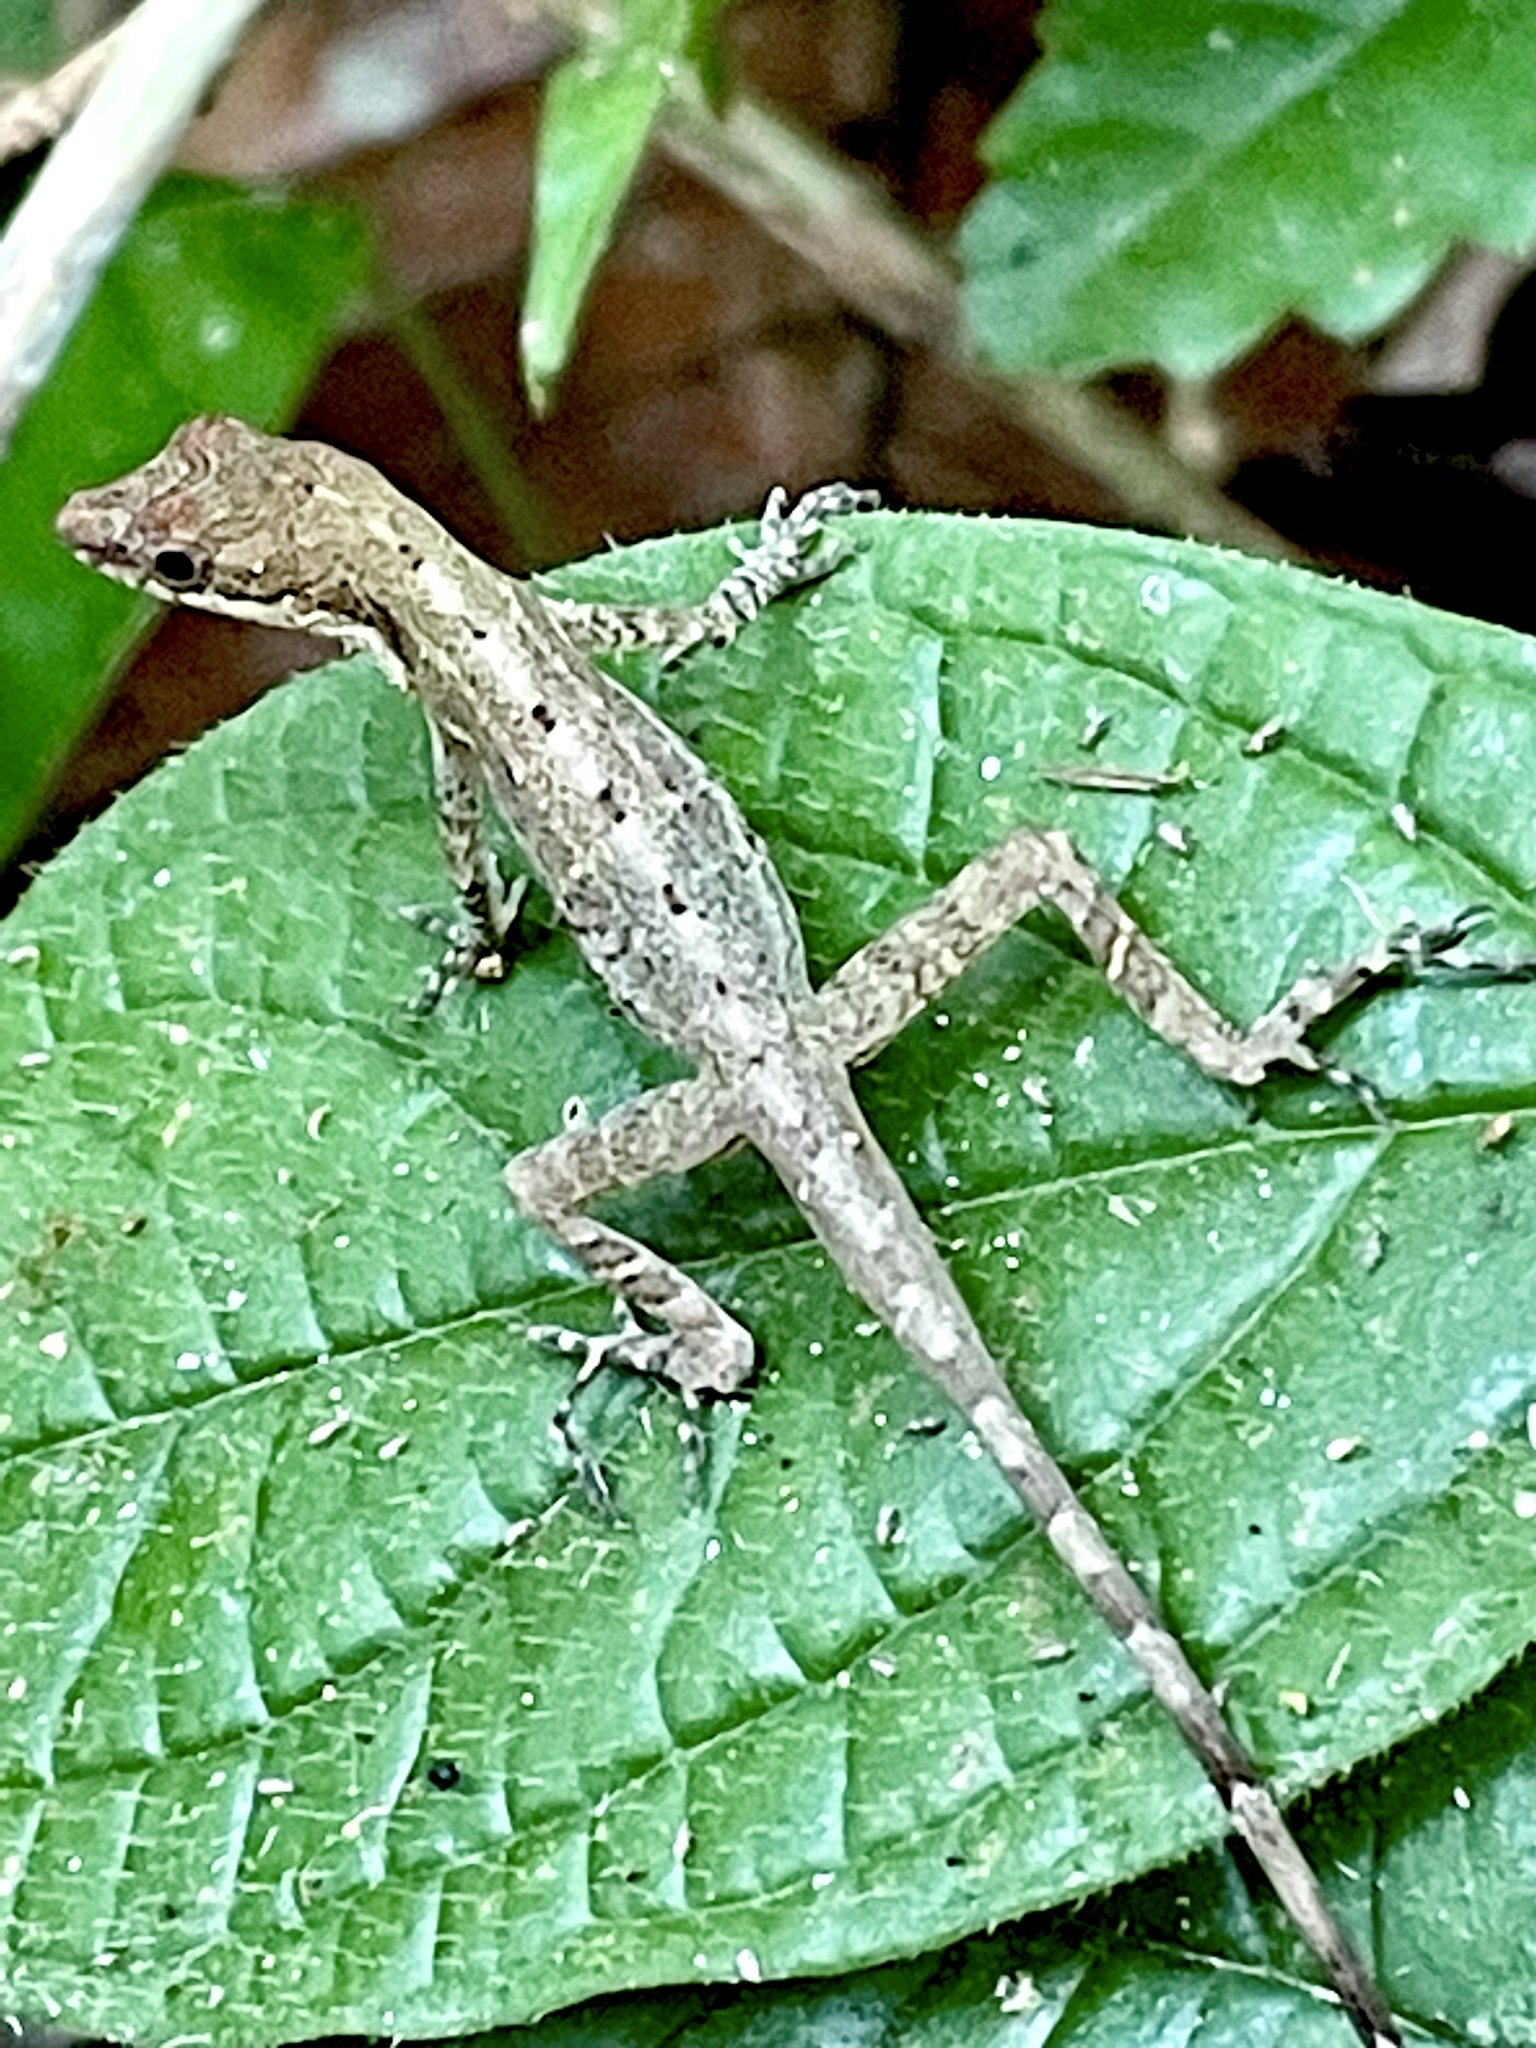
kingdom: Animalia
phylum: Chordata
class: Squamata
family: Dactyloidae
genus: Anolis
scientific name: Anolis apletophallus
